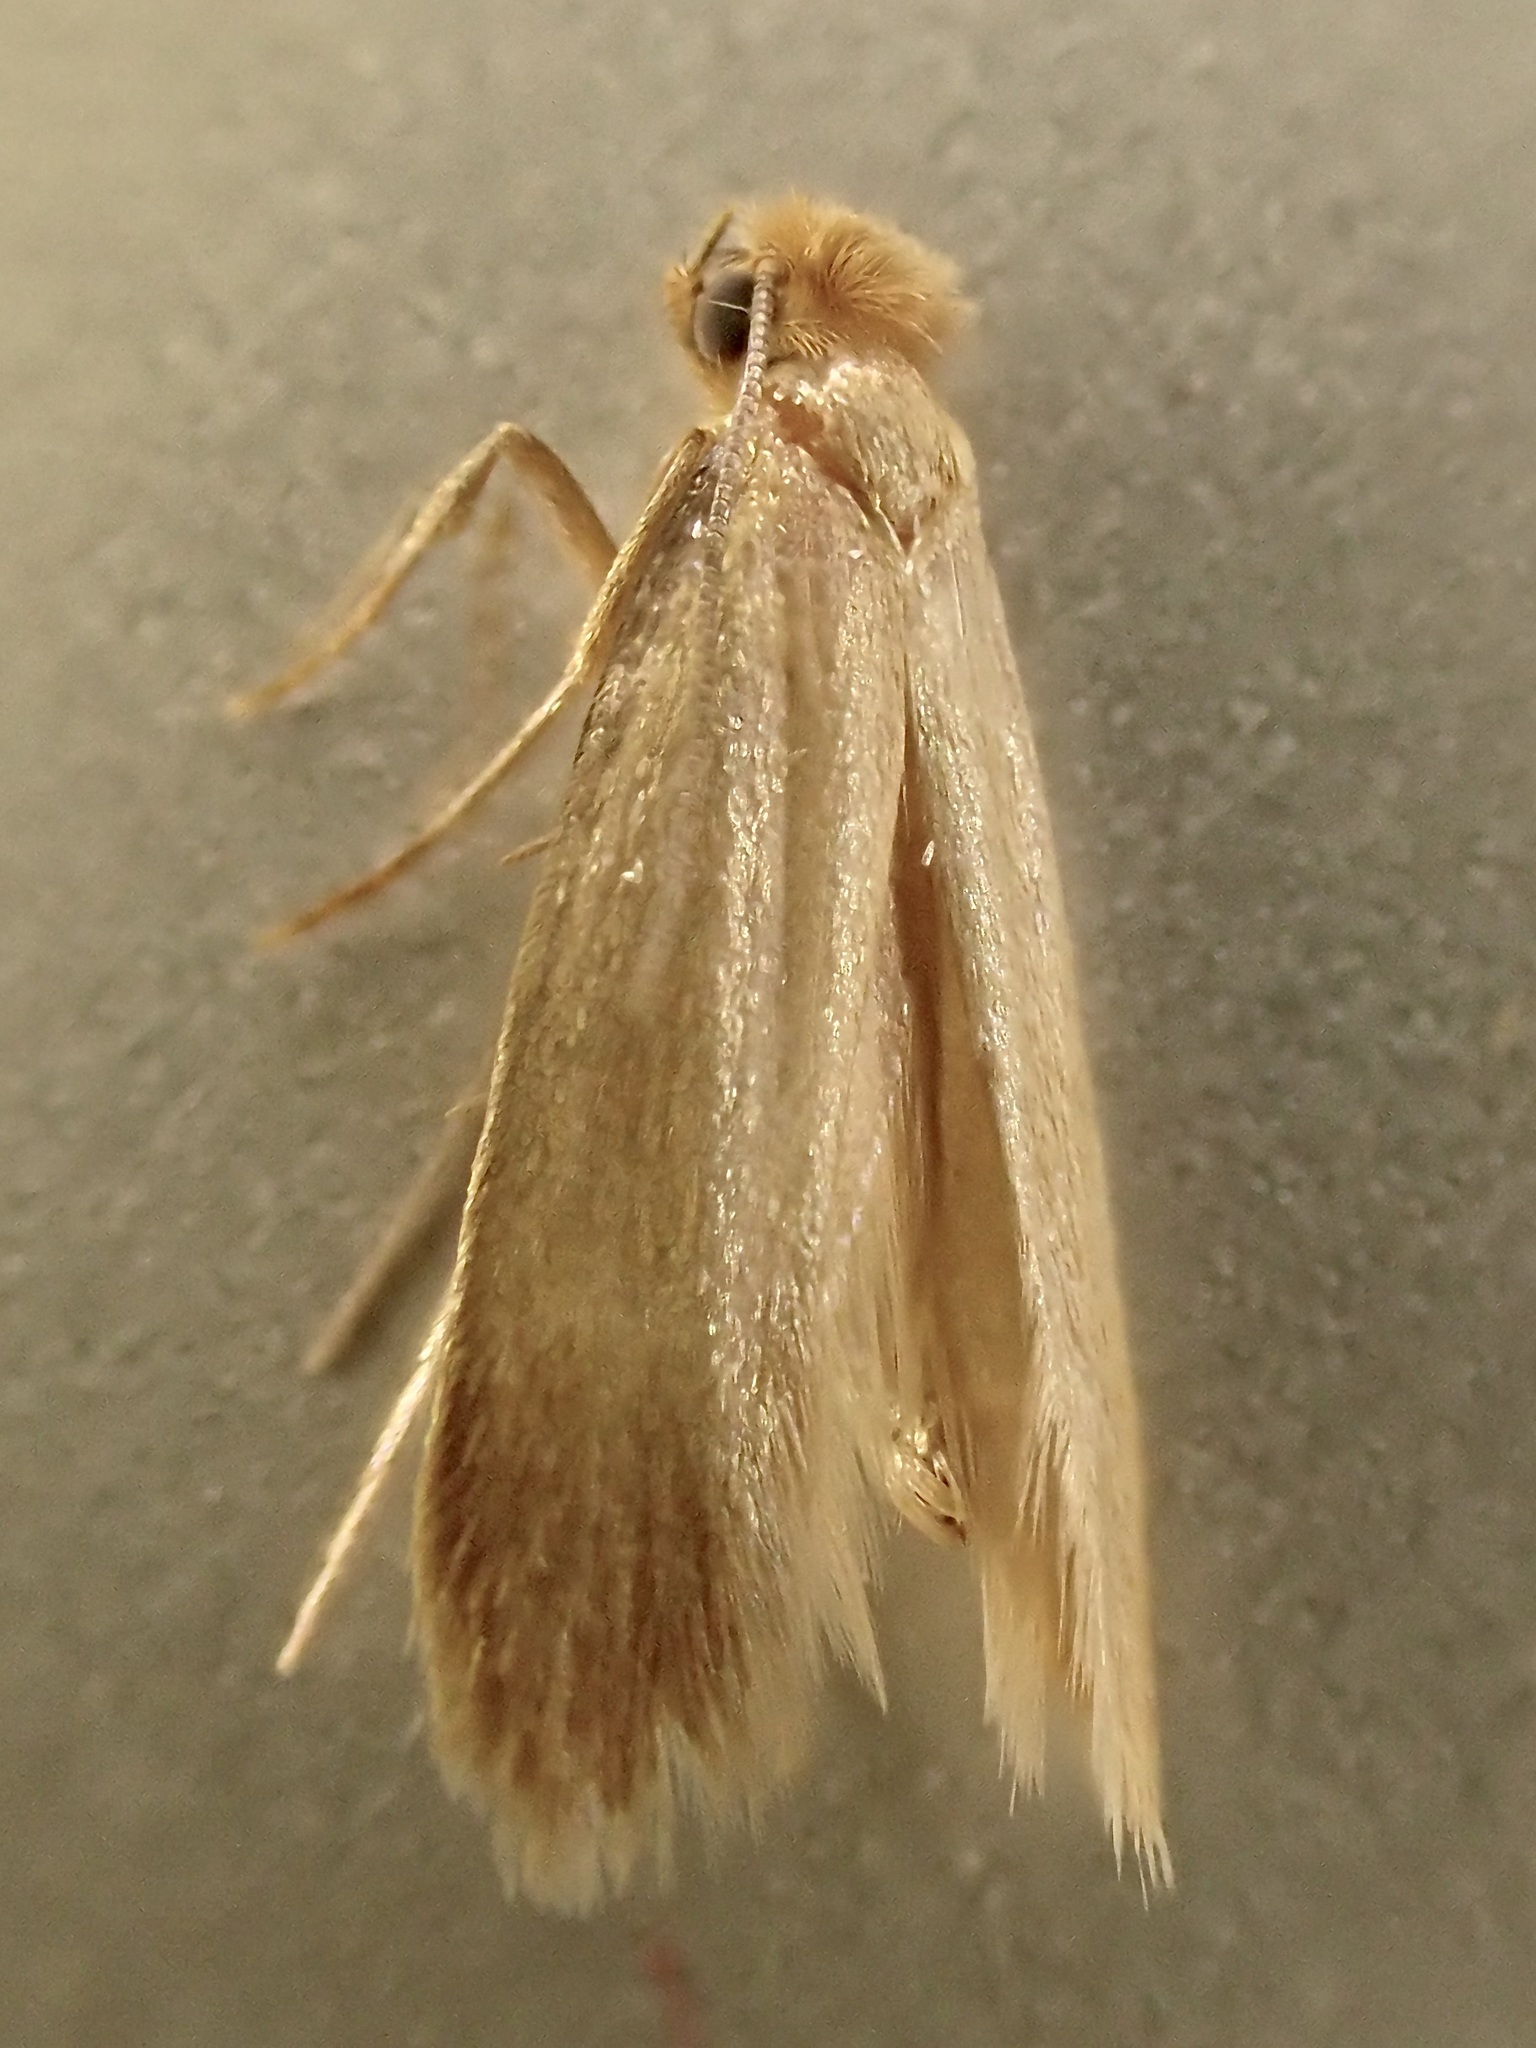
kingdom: Animalia
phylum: Arthropoda
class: Insecta
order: Lepidoptera
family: Tineidae
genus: Tineola
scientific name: Tineola bisselliella
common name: Webbing clothes moth
